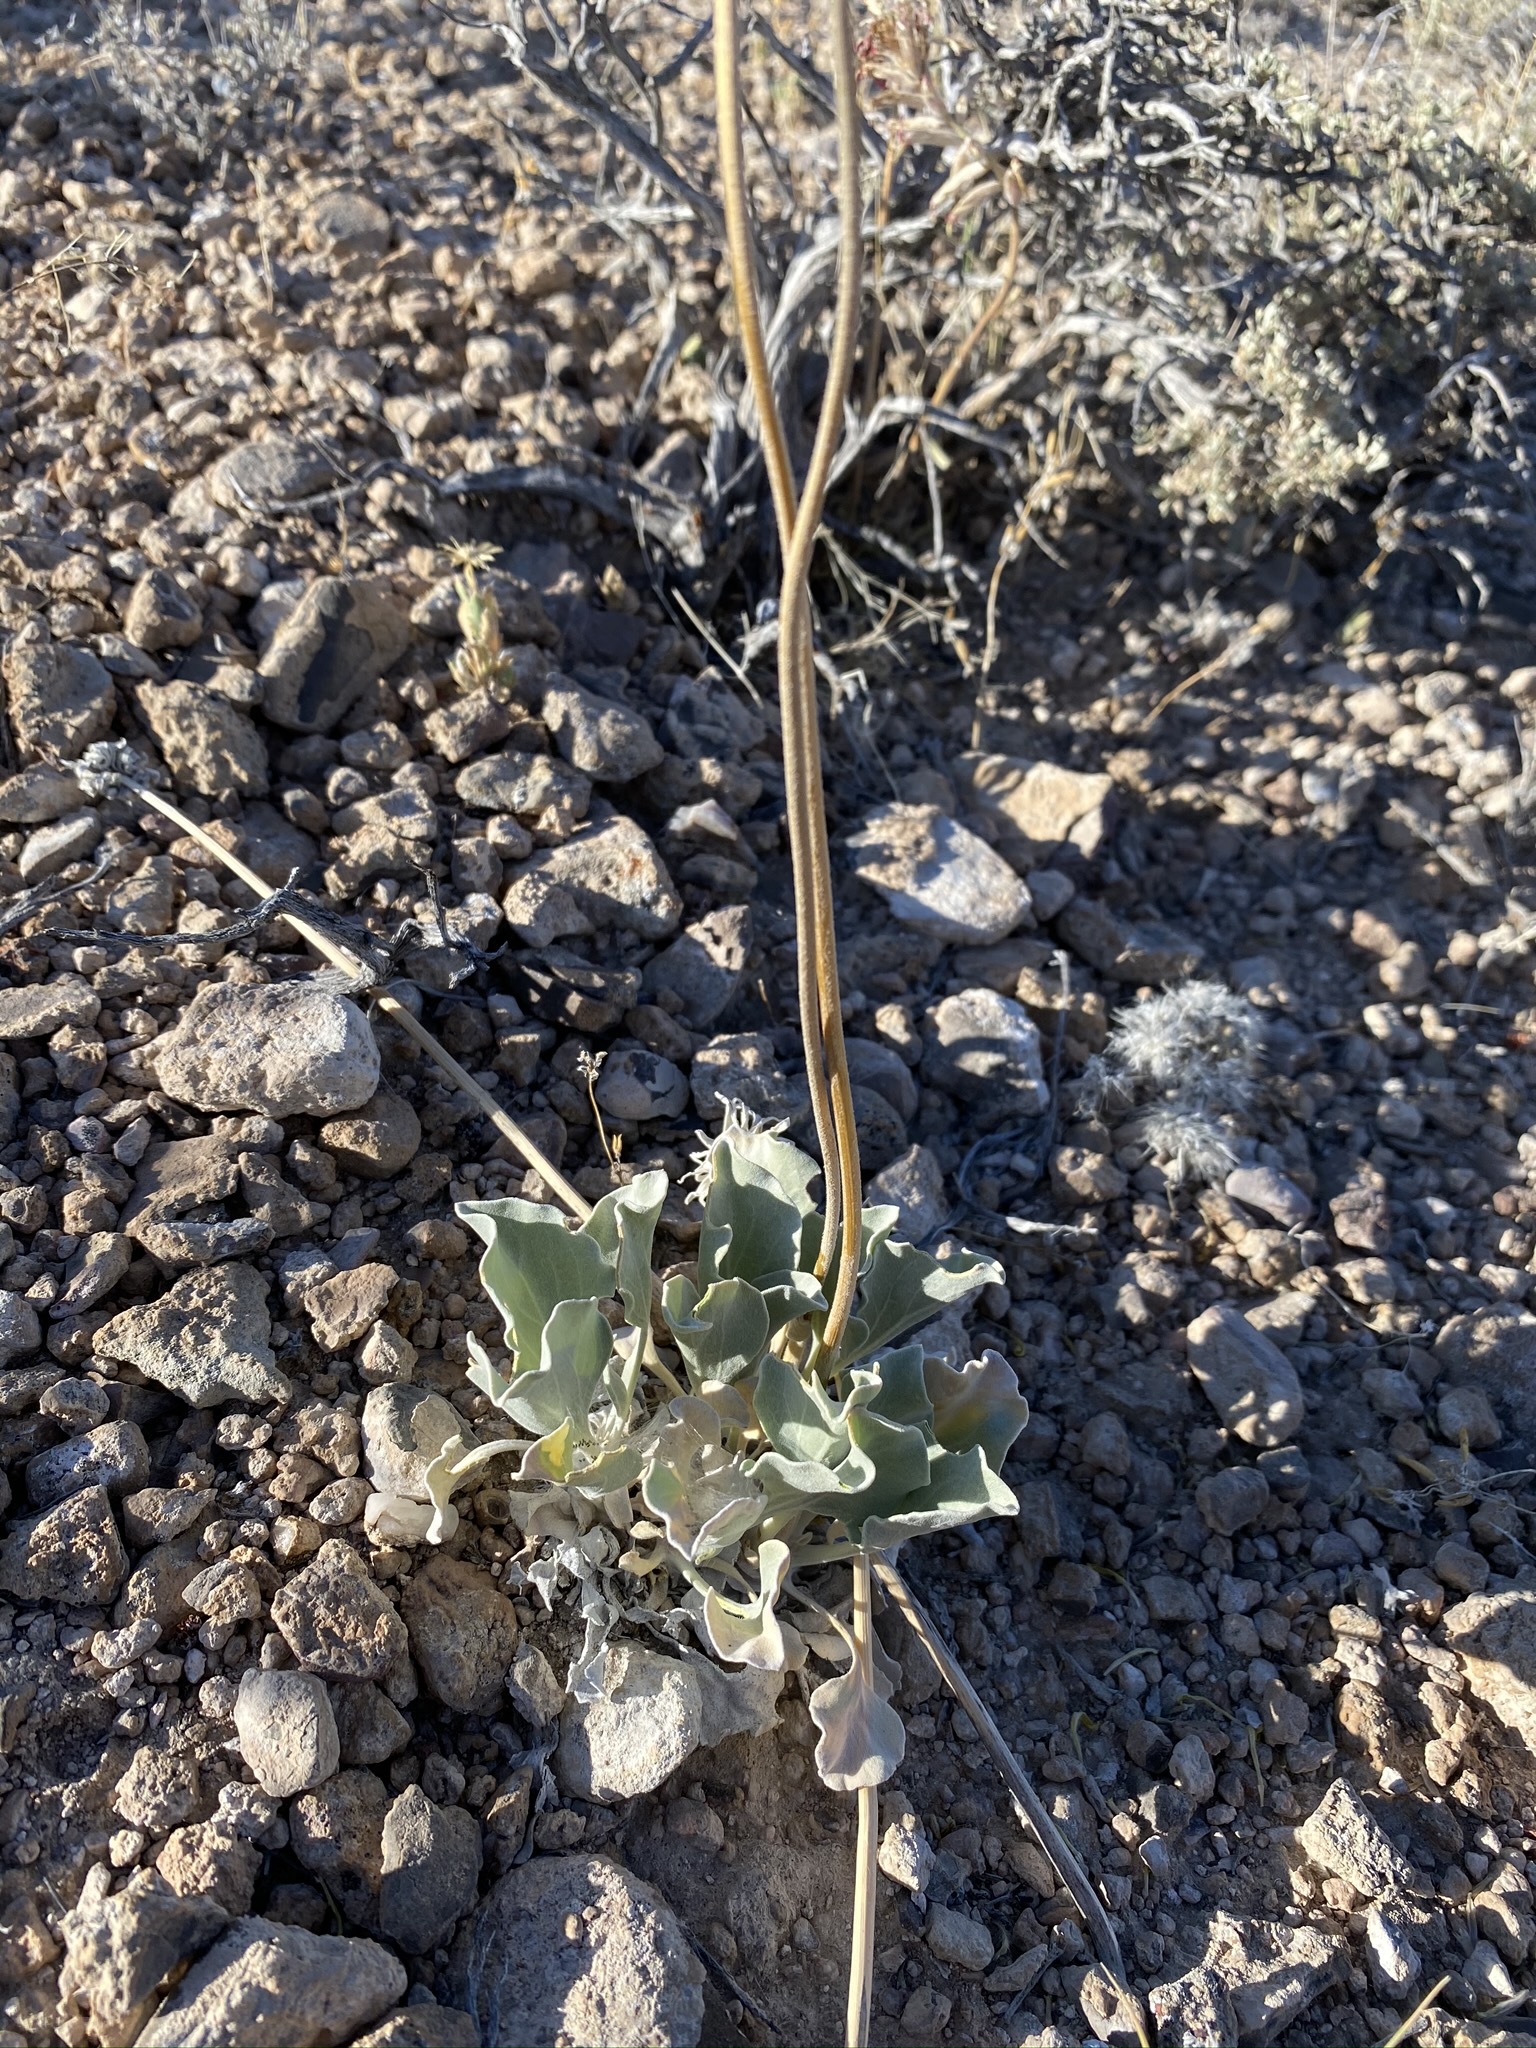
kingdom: Plantae
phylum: Tracheophyta
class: Magnoliopsida
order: Asterales
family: Asteraceae
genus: Enceliopsis
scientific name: Enceliopsis nudicaulis
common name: Naked-stem daisy
